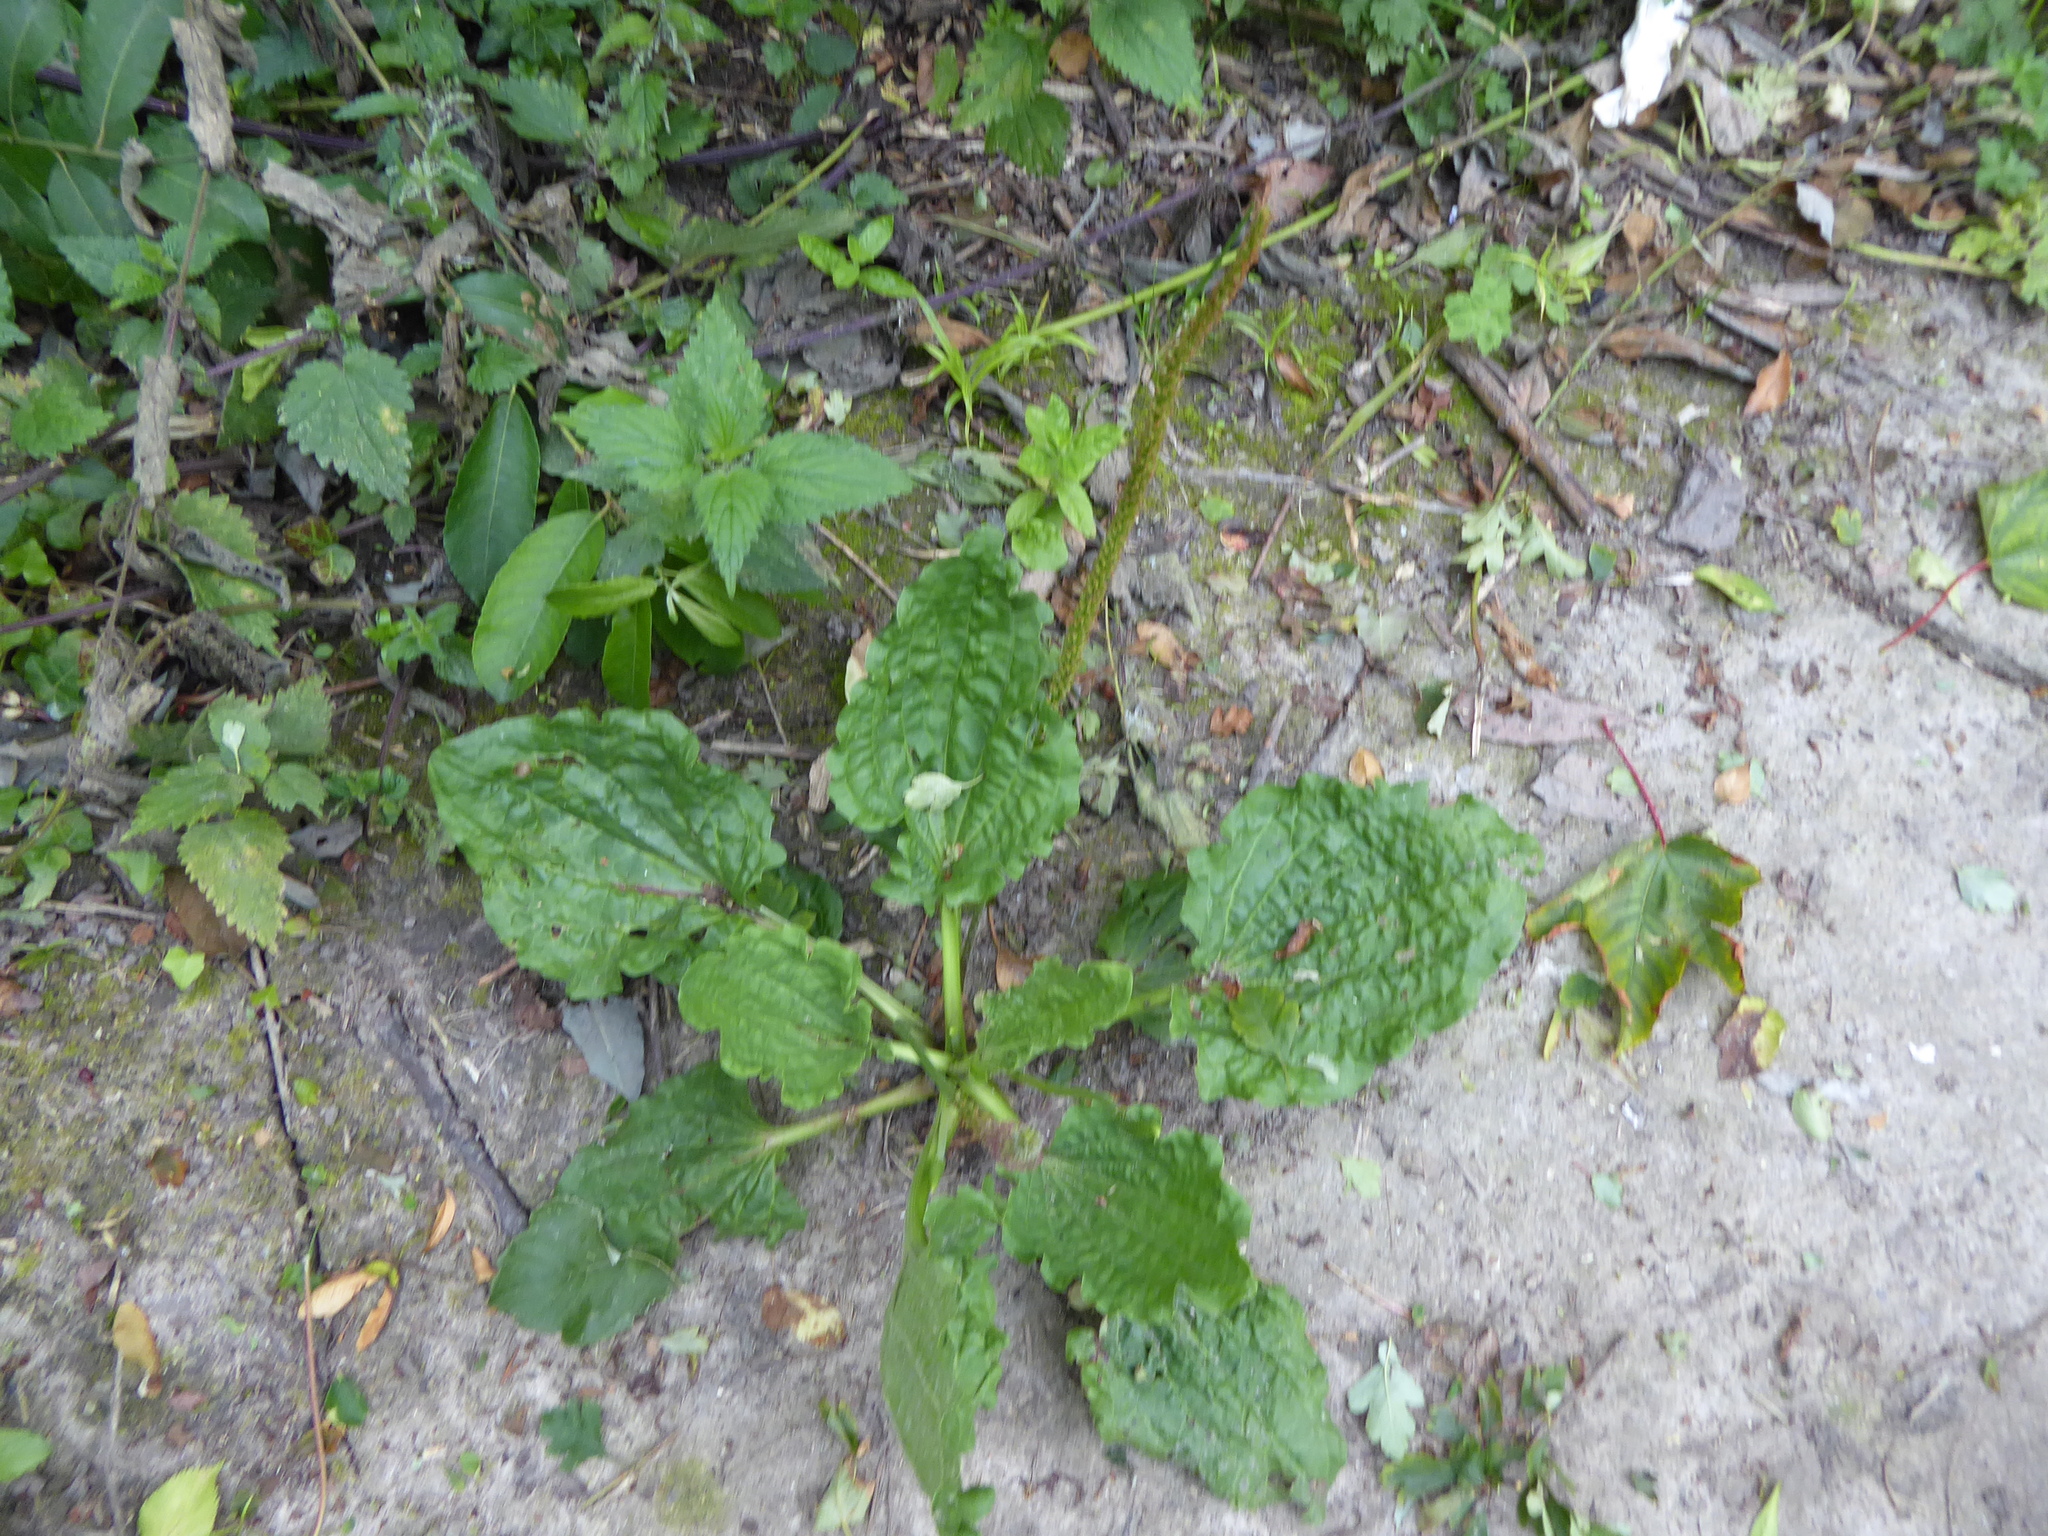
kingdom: Plantae
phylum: Tracheophyta
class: Magnoliopsida
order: Lamiales
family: Plantaginaceae
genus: Plantago
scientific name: Plantago major
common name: Common plantain
